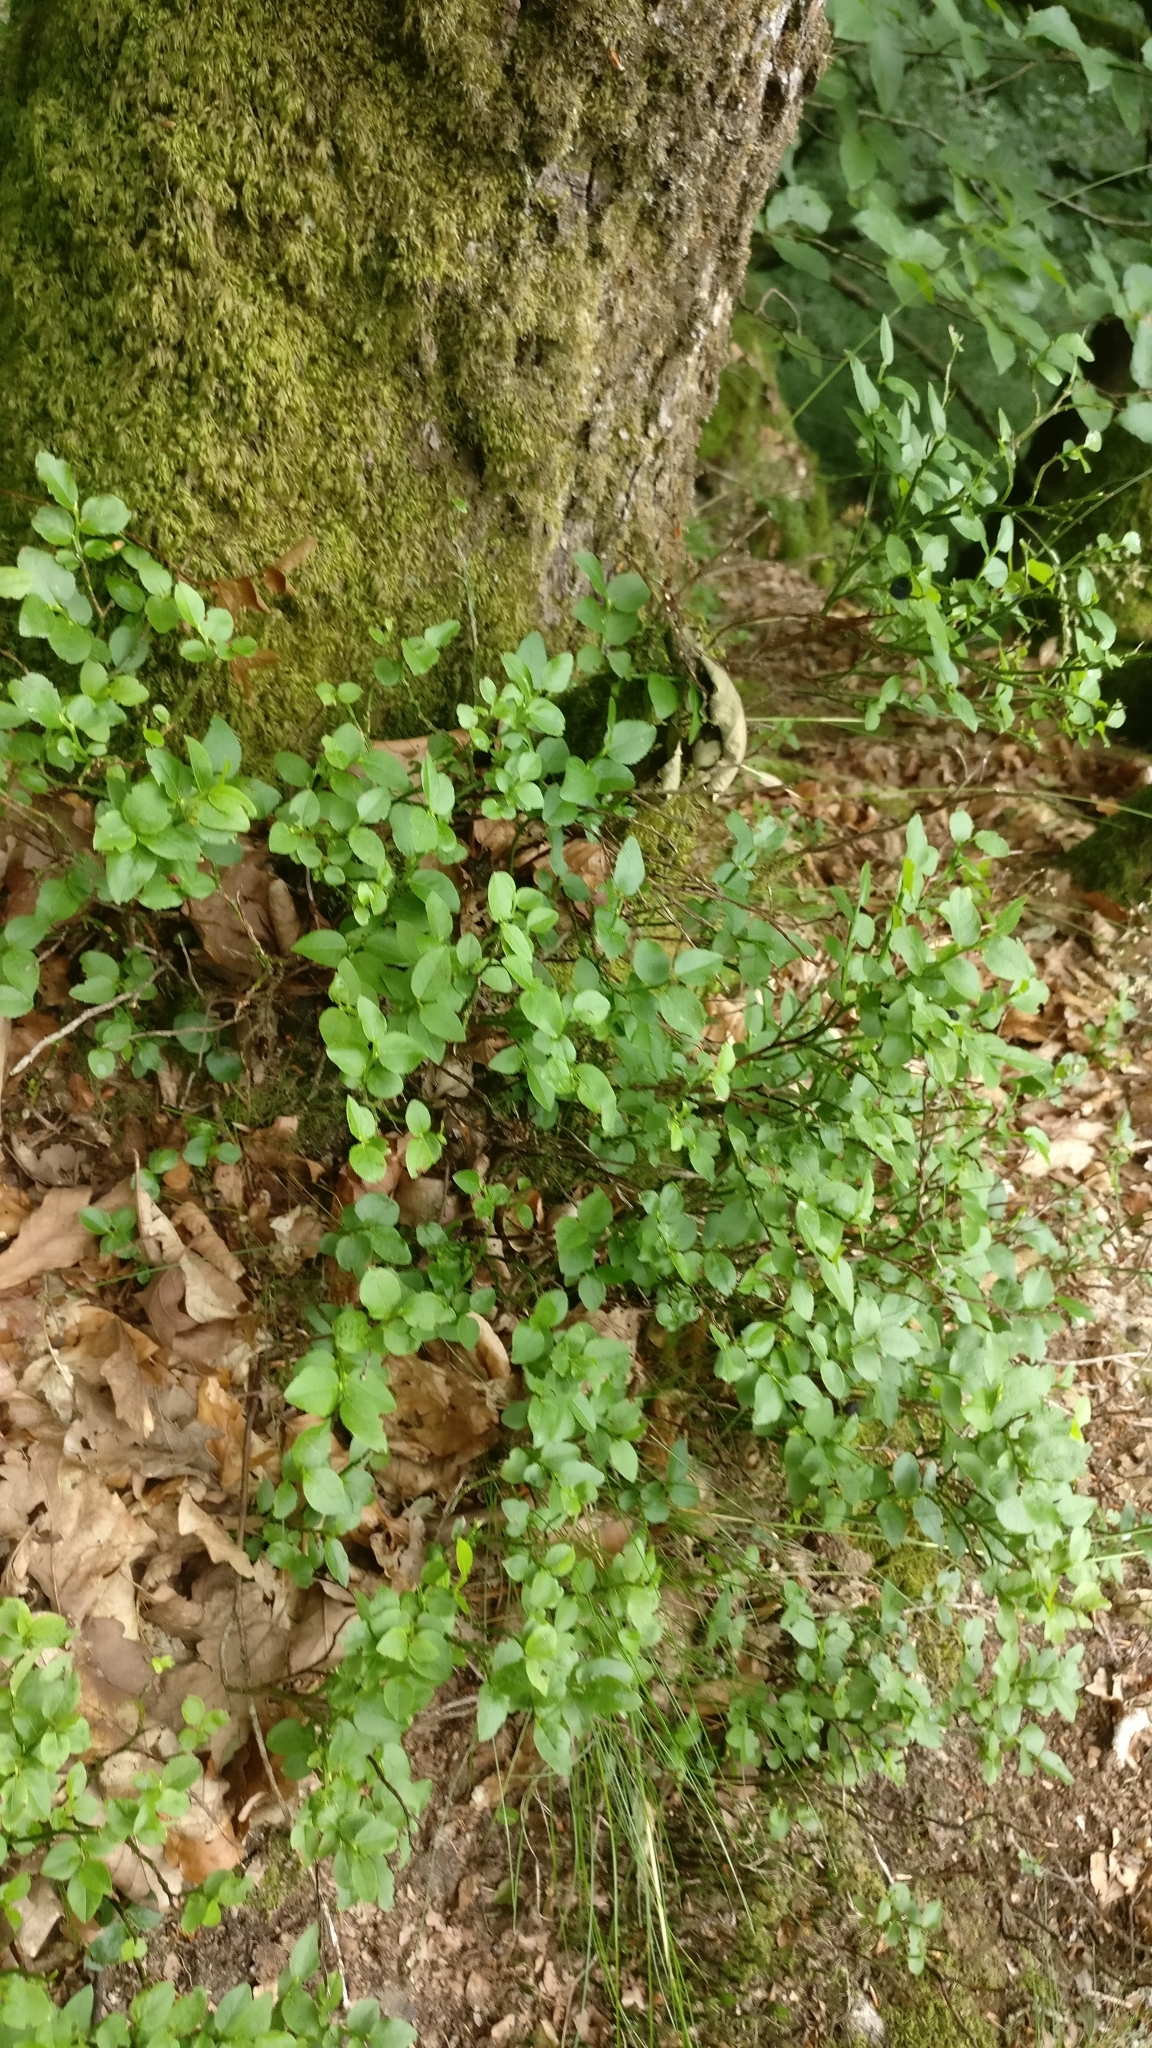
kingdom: Plantae
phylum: Tracheophyta
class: Magnoliopsida
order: Ericales
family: Ericaceae
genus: Vaccinium
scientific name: Vaccinium myrtillus
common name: Bilberry
